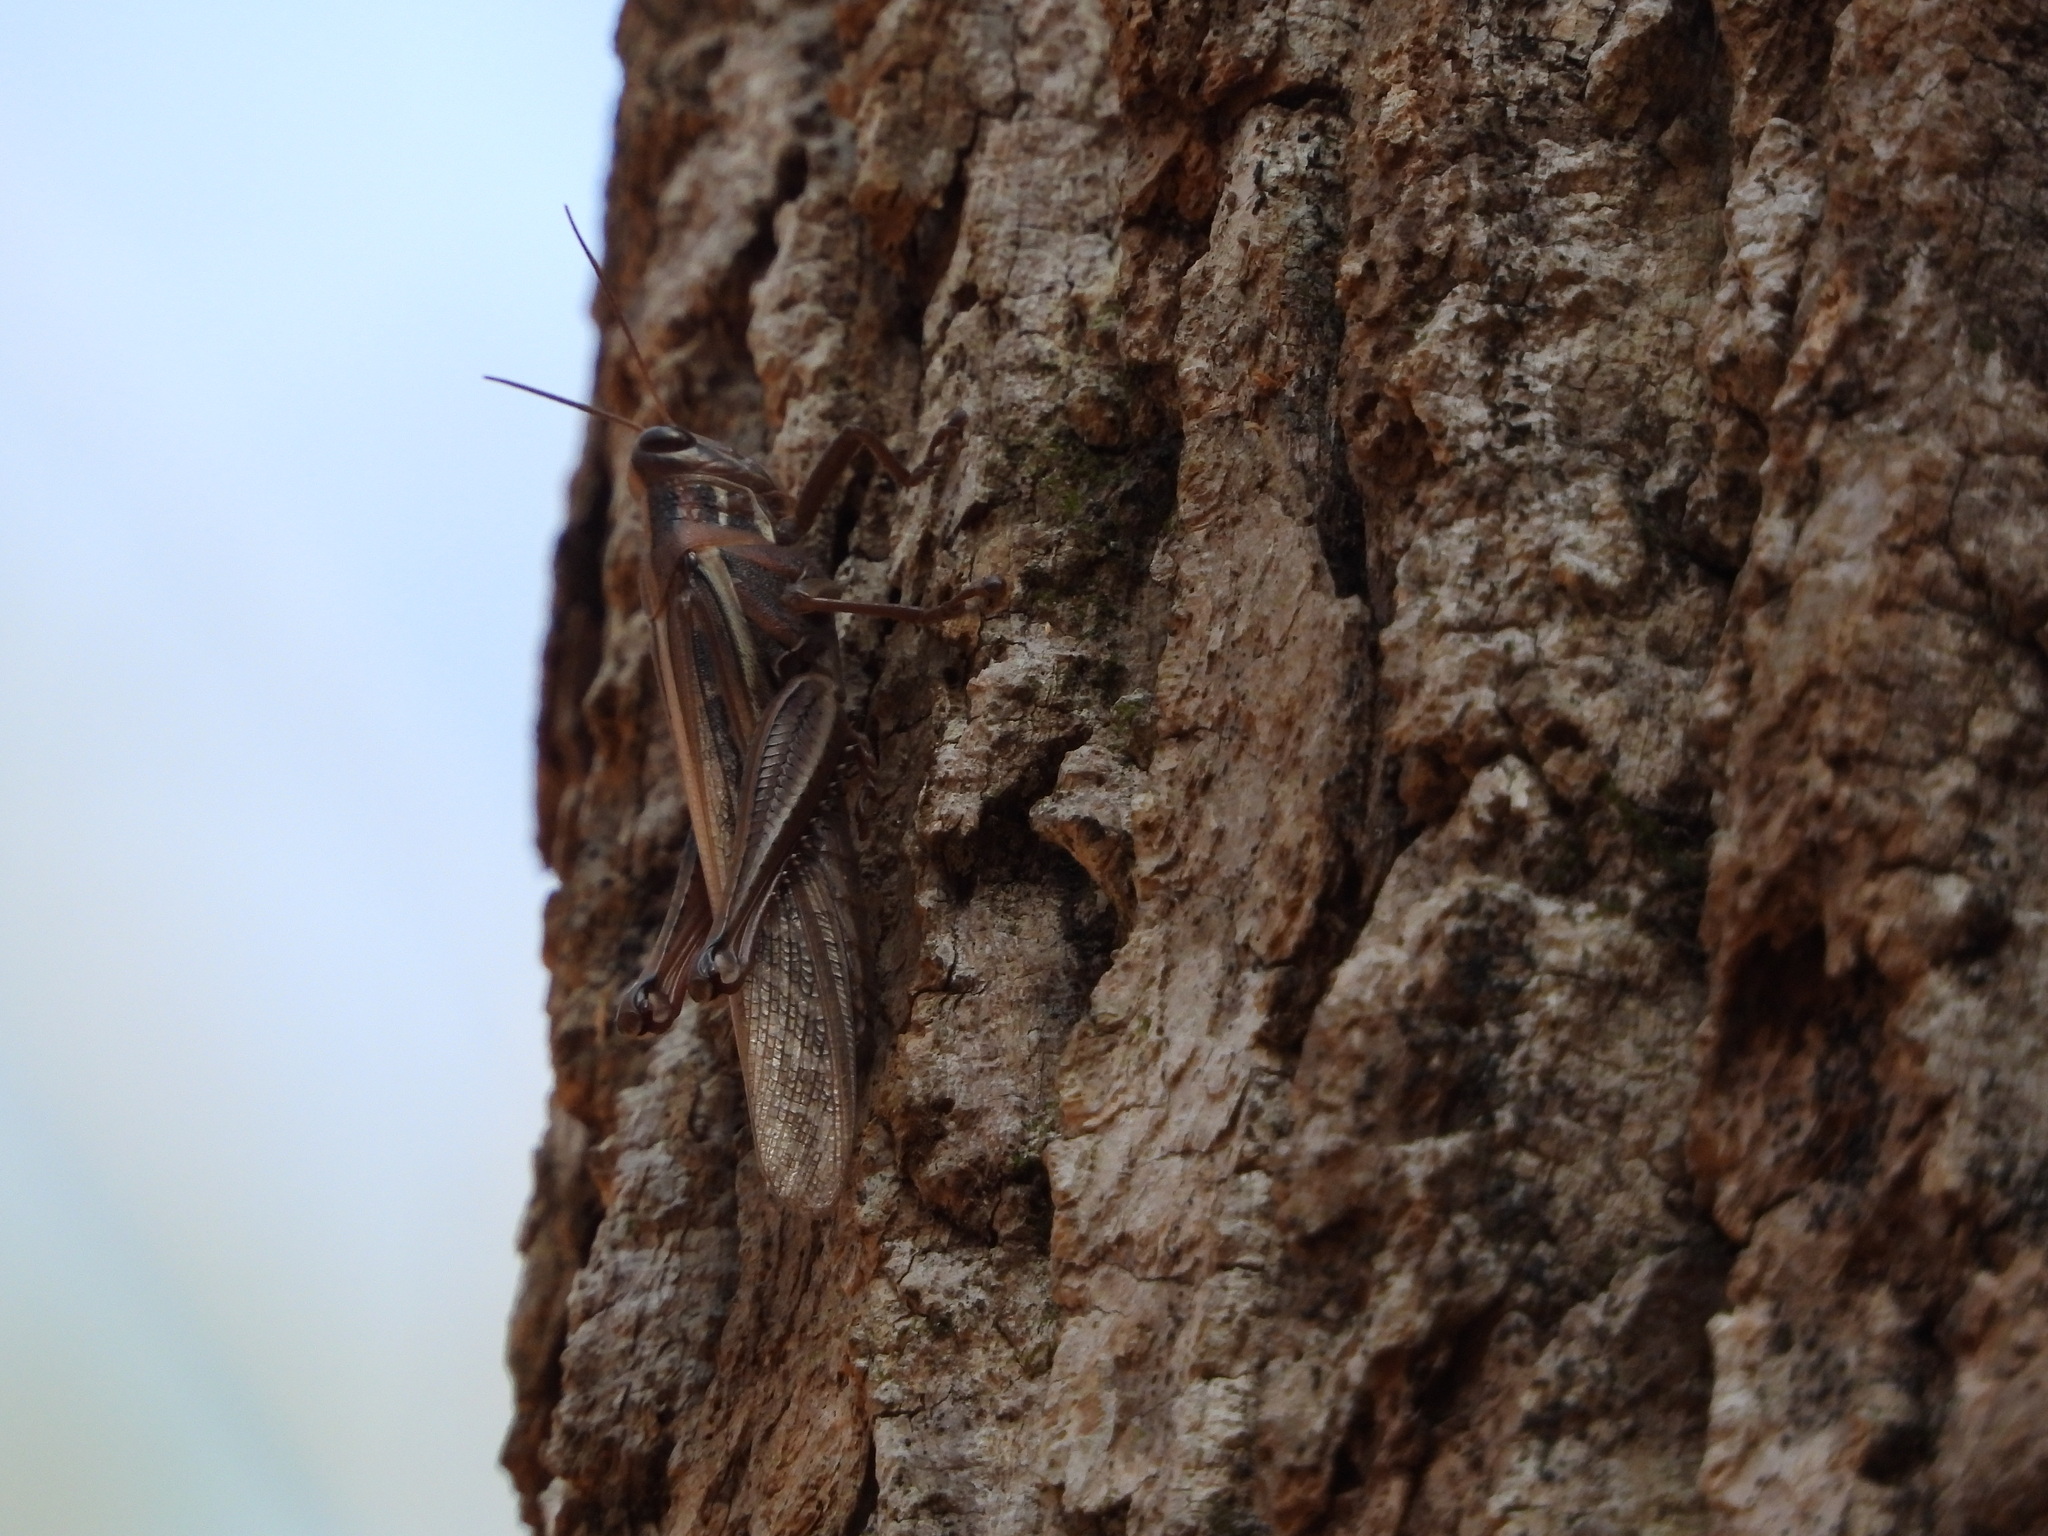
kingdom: Animalia
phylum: Arthropoda
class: Insecta
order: Orthoptera
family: Acrididae
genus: Schistocerca
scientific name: Schistocerca americana
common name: American bird locust
